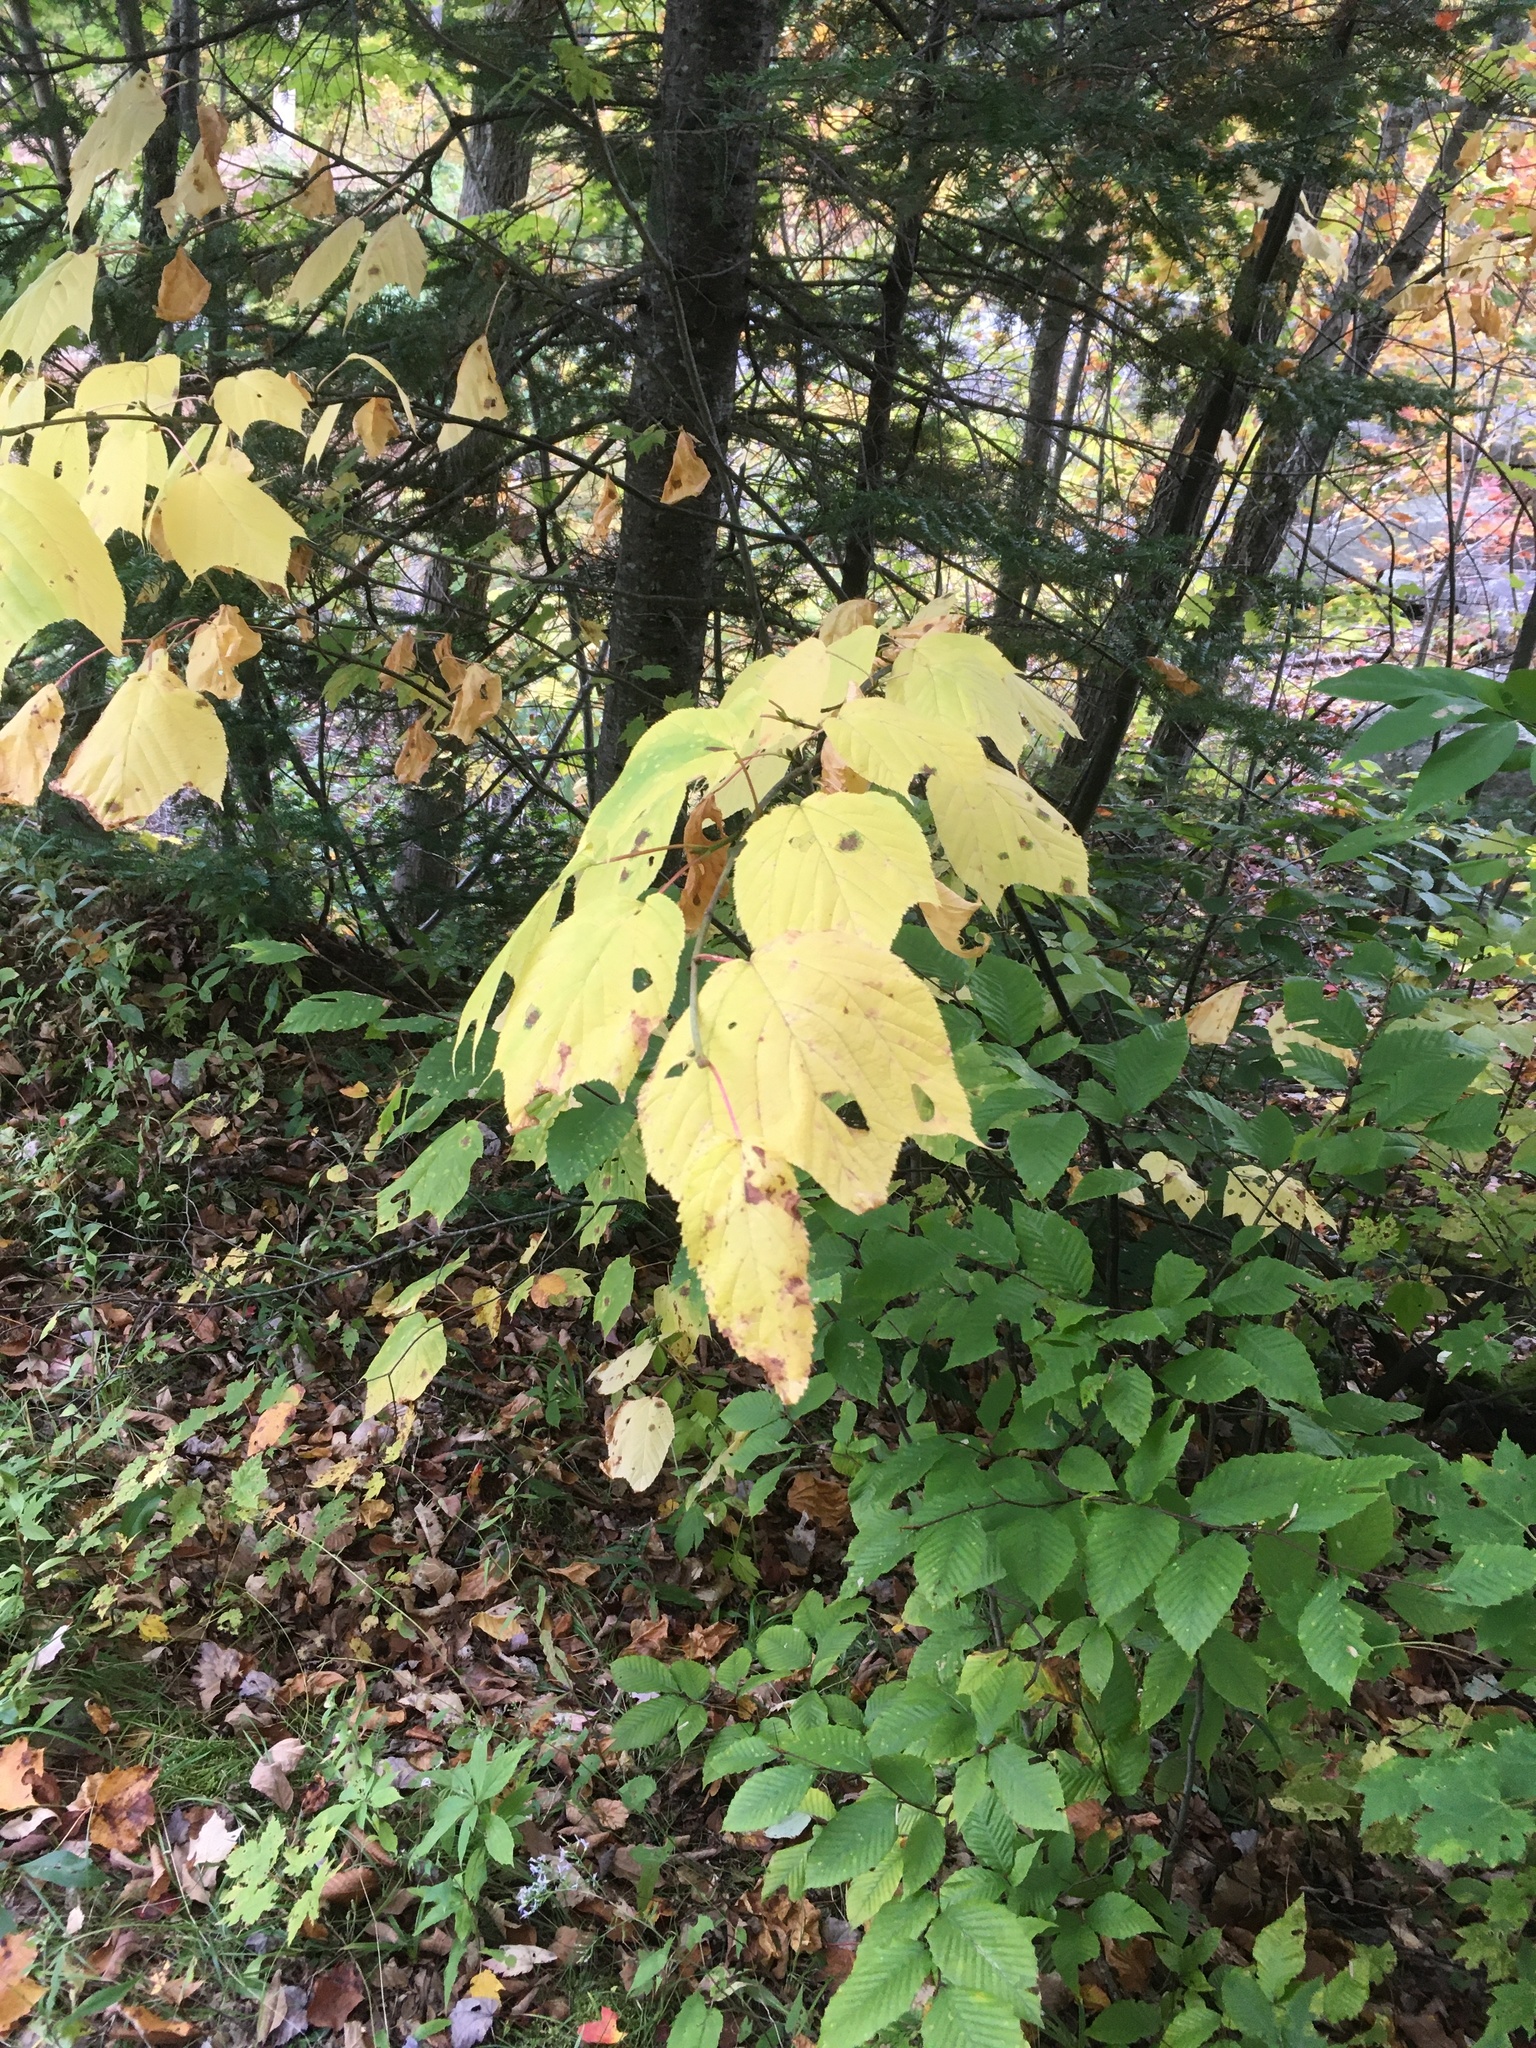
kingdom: Plantae
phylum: Tracheophyta
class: Magnoliopsida
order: Sapindales
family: Sapindaceae
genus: Acer
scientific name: Acer pensylvanicum
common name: Moosewood
